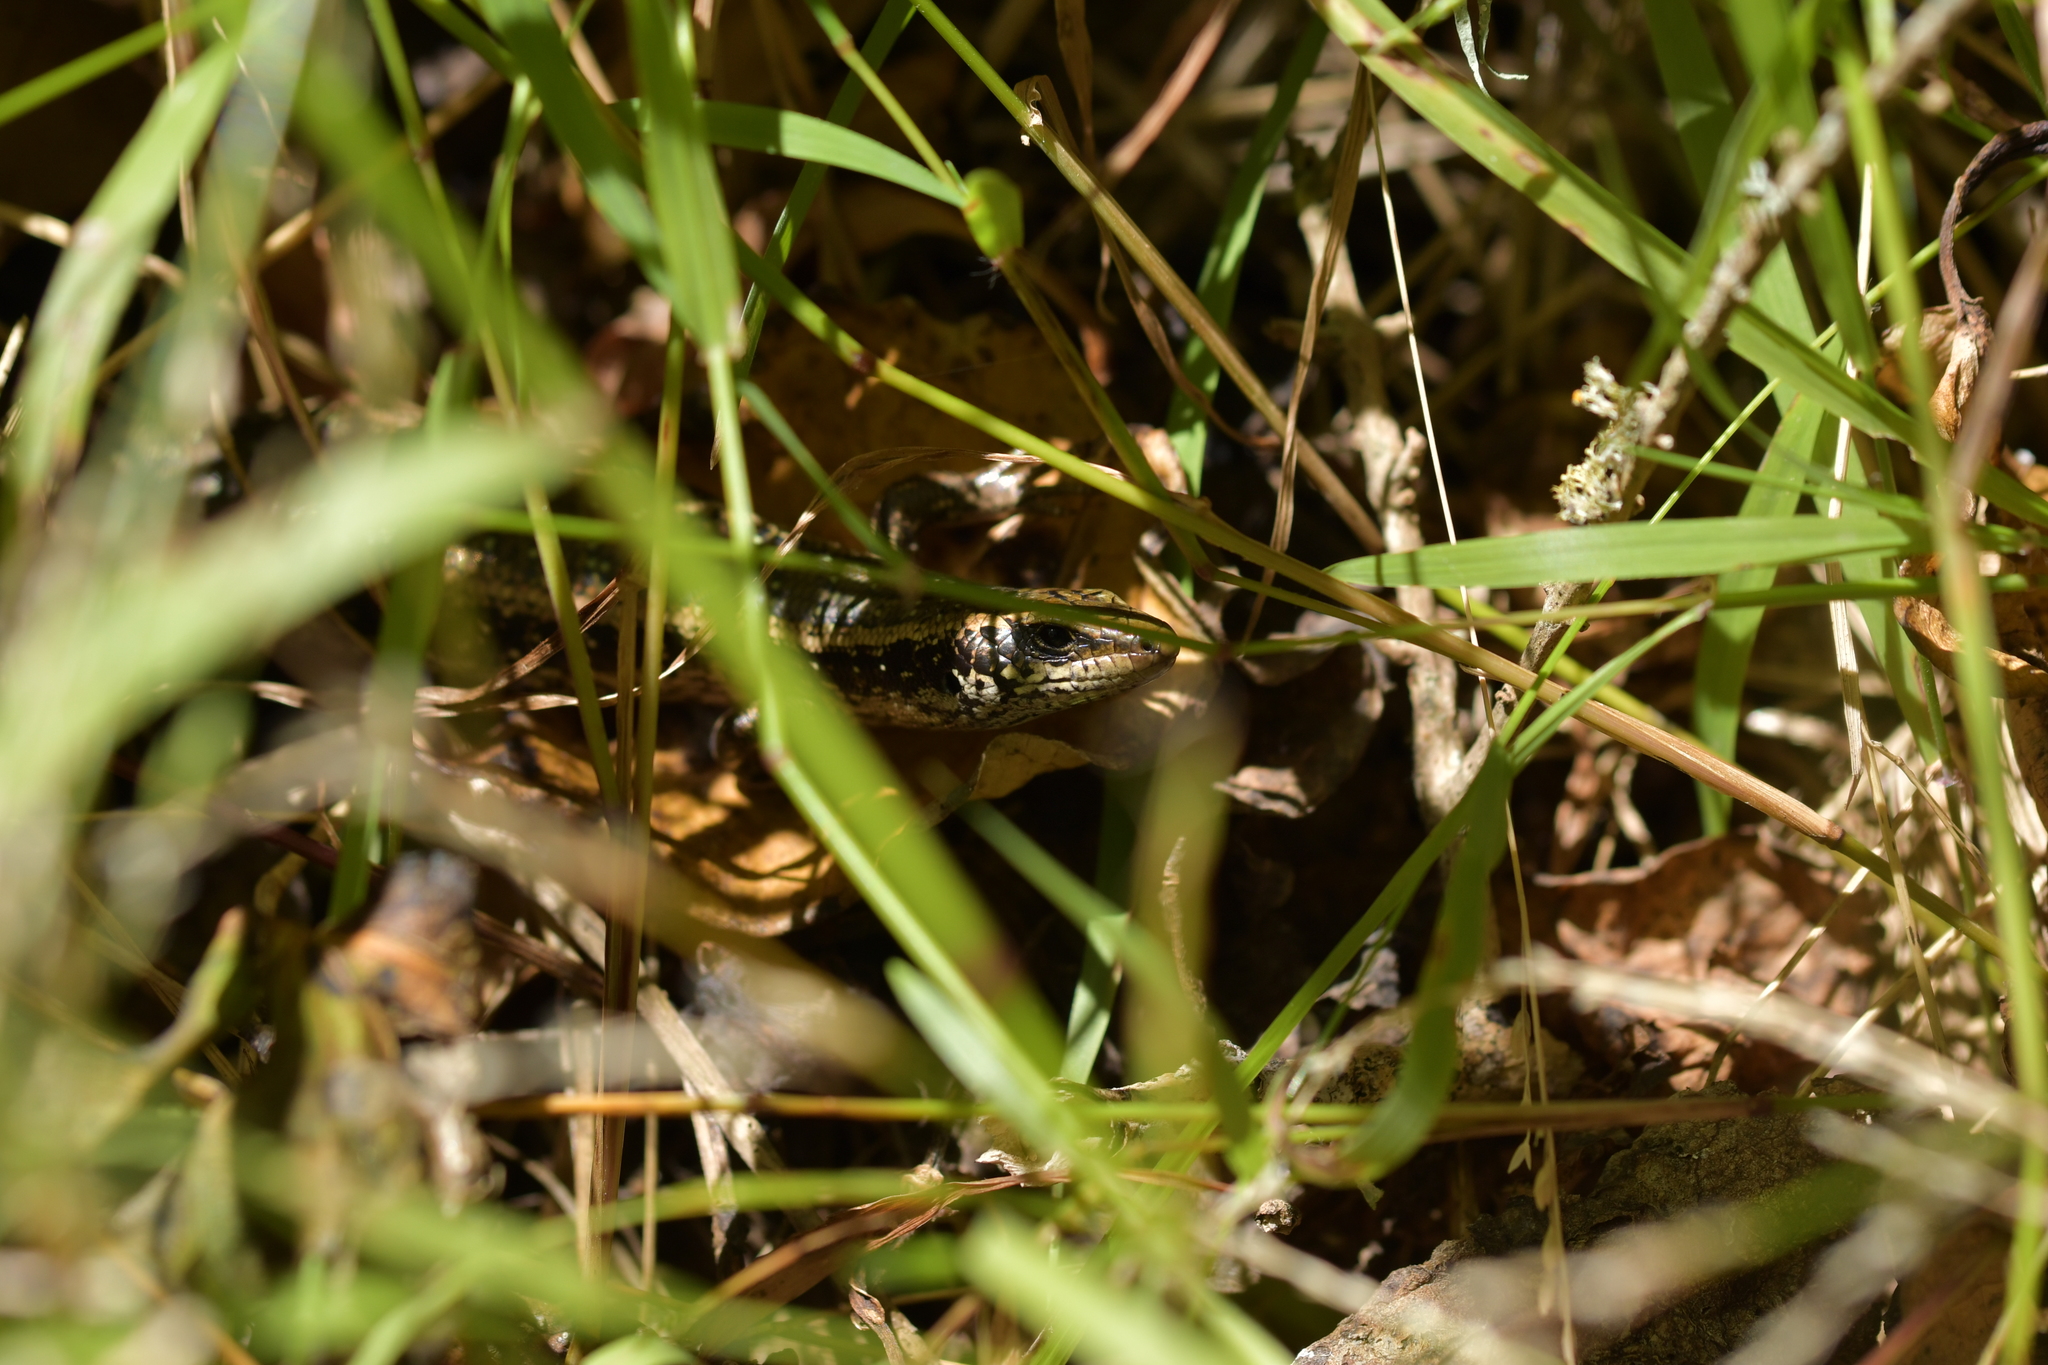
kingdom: Animalia
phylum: Chordata
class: Squamata
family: Scincidae
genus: Oligosoma
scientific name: Oligosoma kokowai
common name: Northern spotted skink
